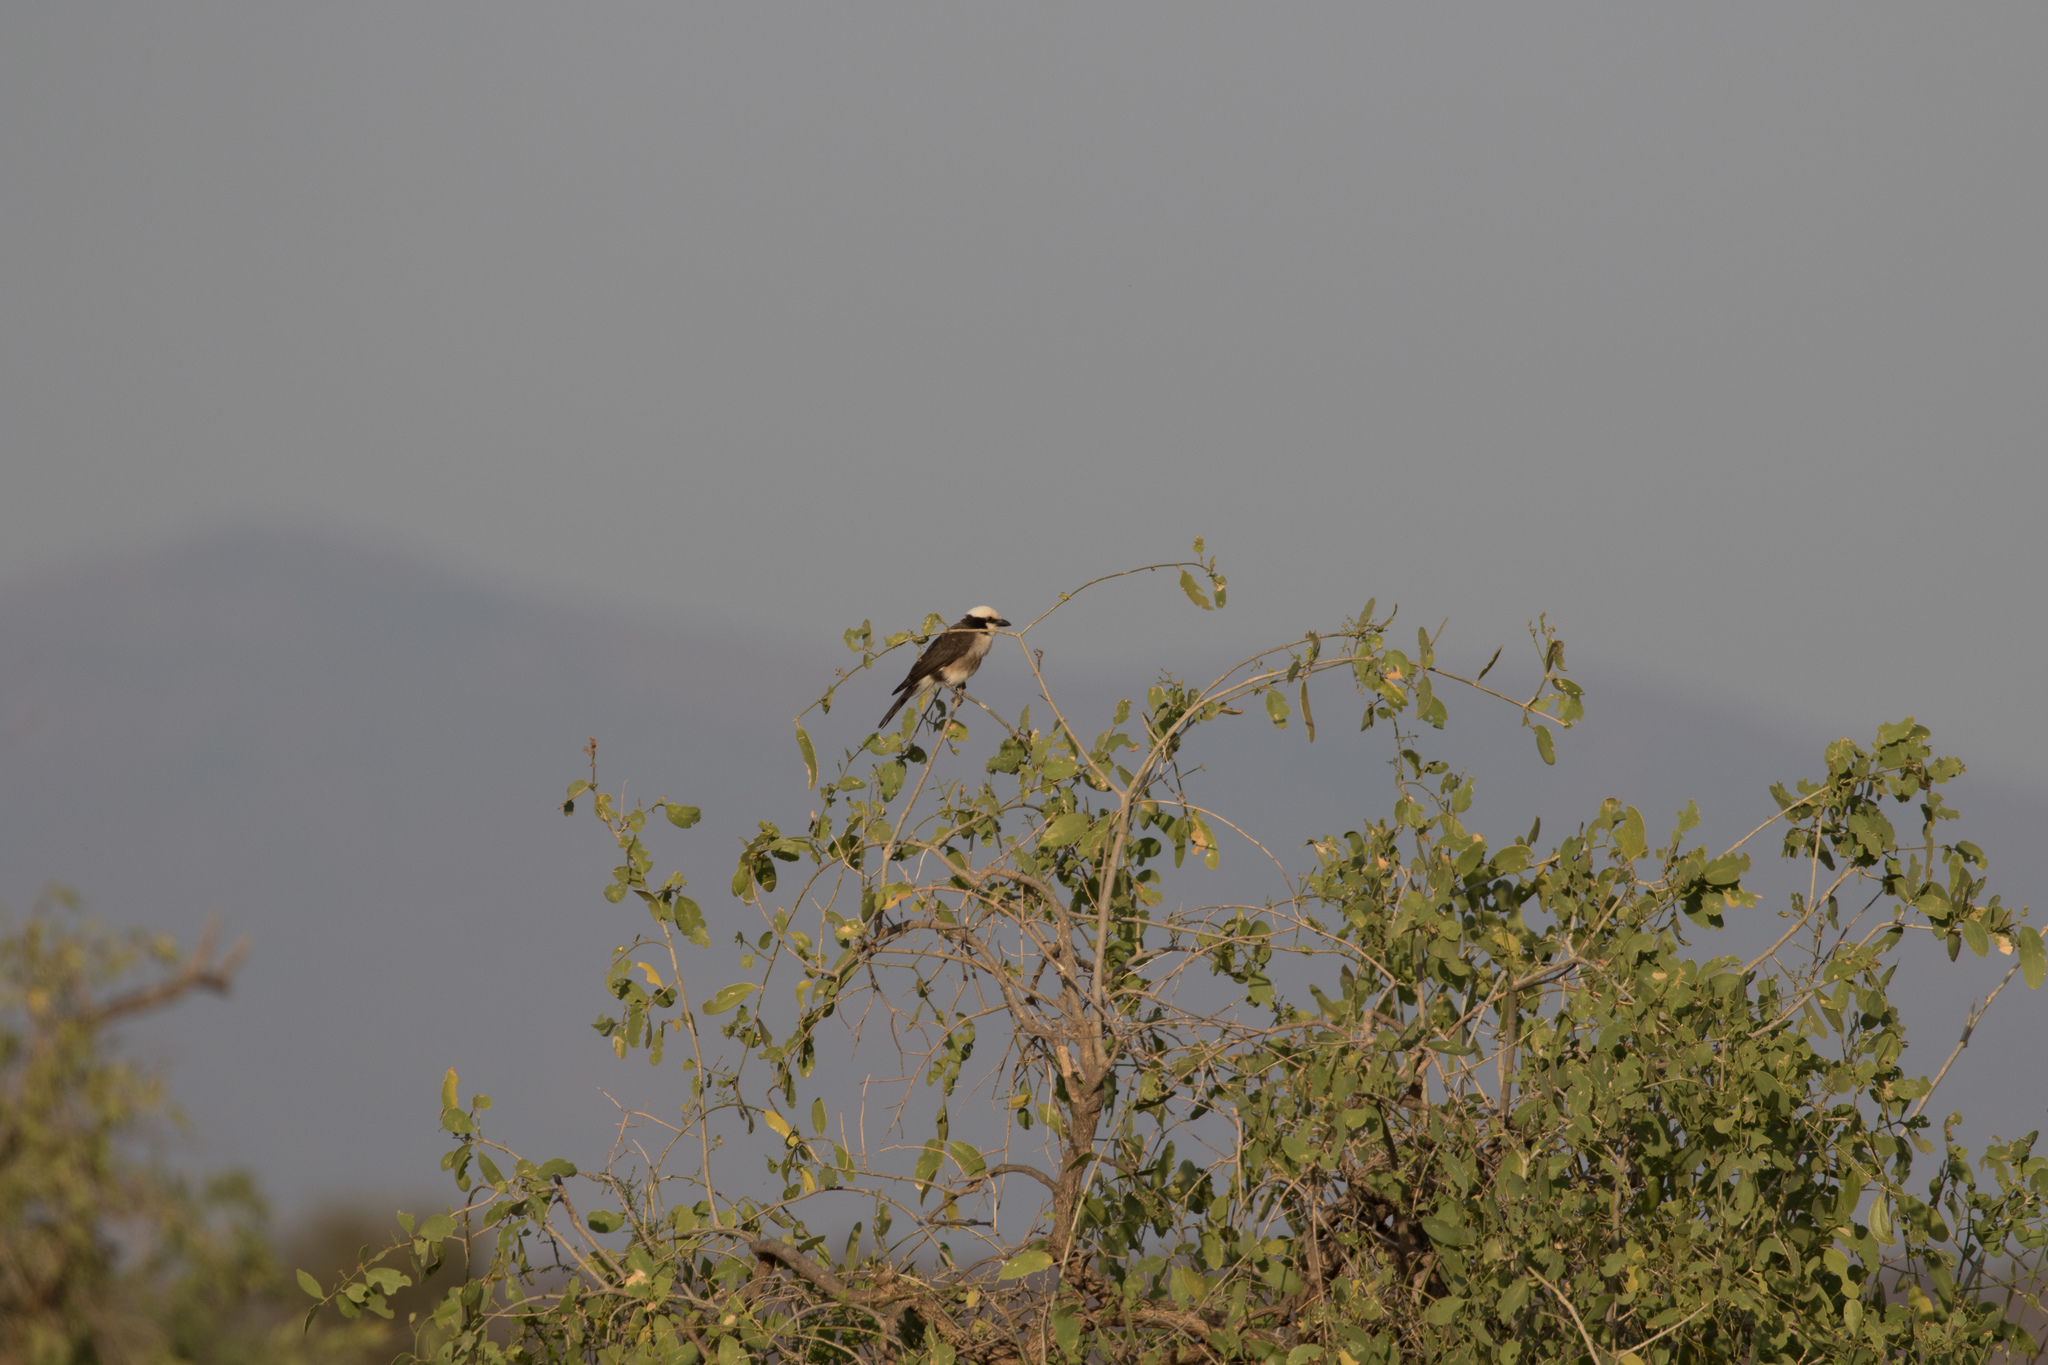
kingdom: Animalia
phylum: Chordata
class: Aves
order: Passeriformes
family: Laniidae
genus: Eurocephalus
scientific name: Eurocephalus ruppelli
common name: Northern white-crowned shrike
